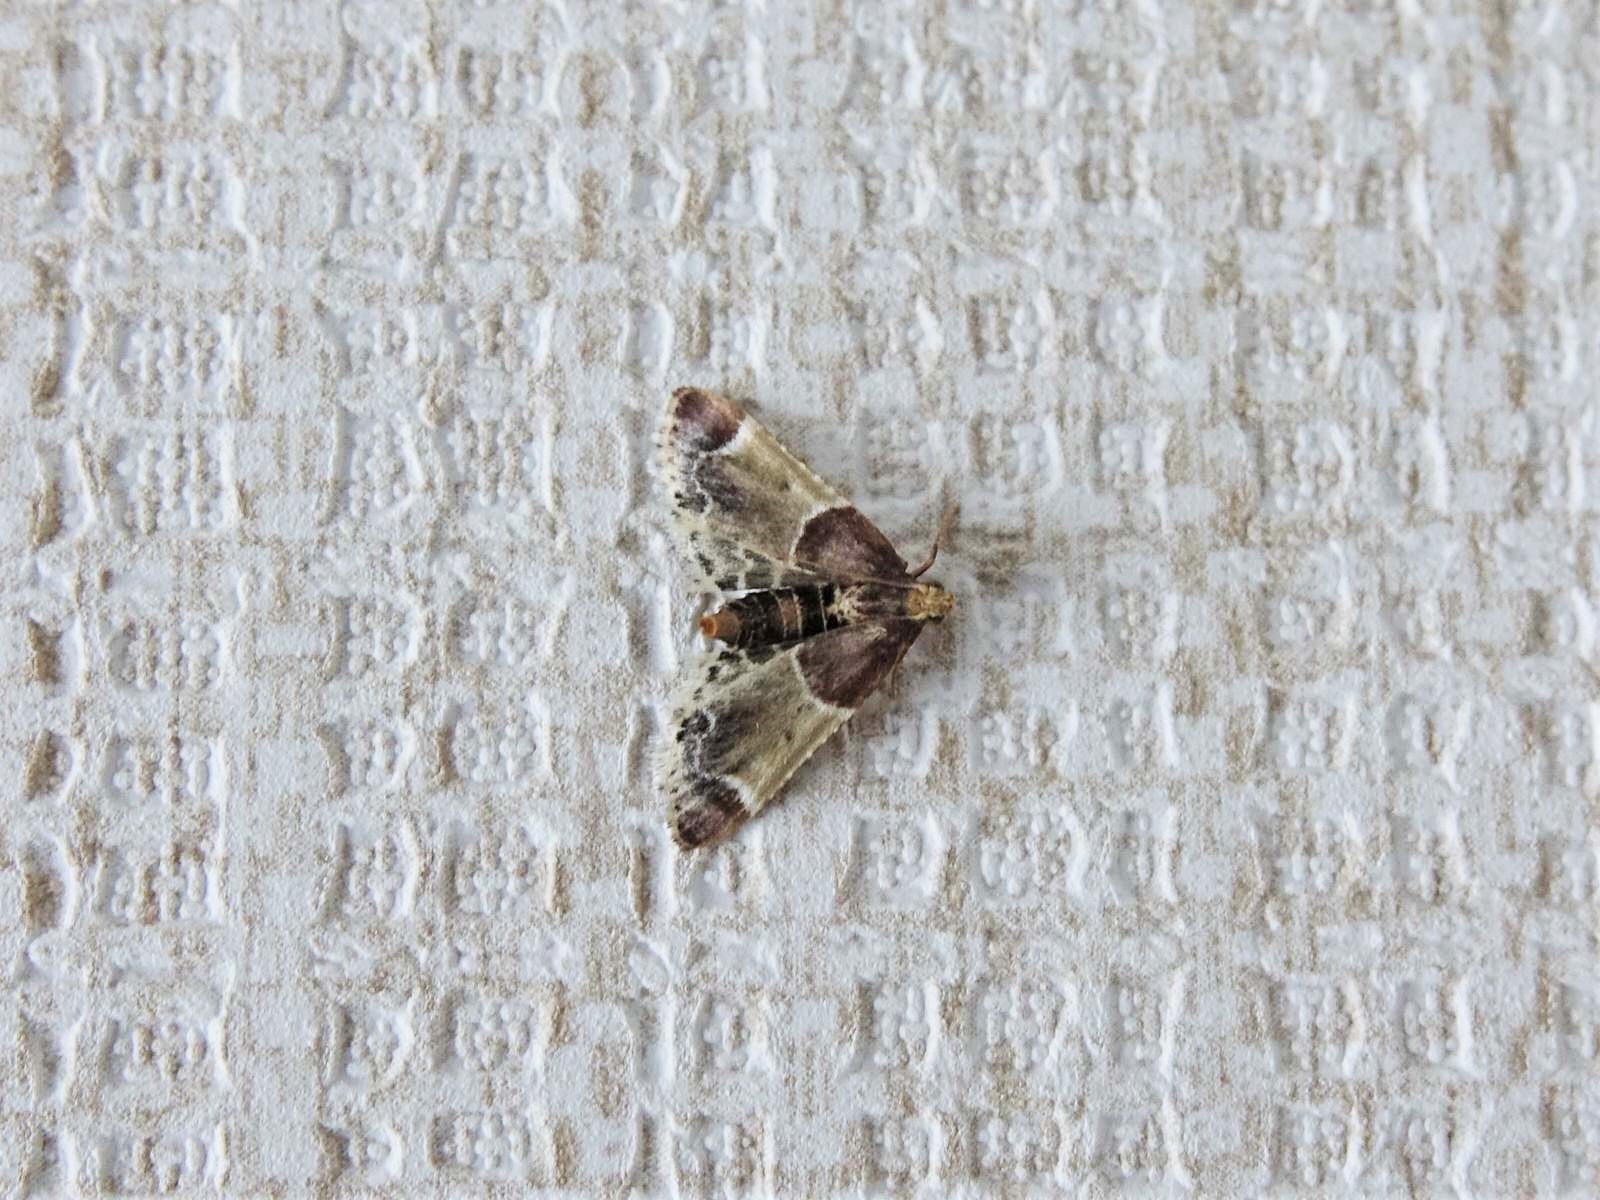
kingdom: Animalia
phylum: Arthropoda
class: Insecta
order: Lepidoptera
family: Pyralidae
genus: Pyralis
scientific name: Pyralis farinalis
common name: Meal moth
